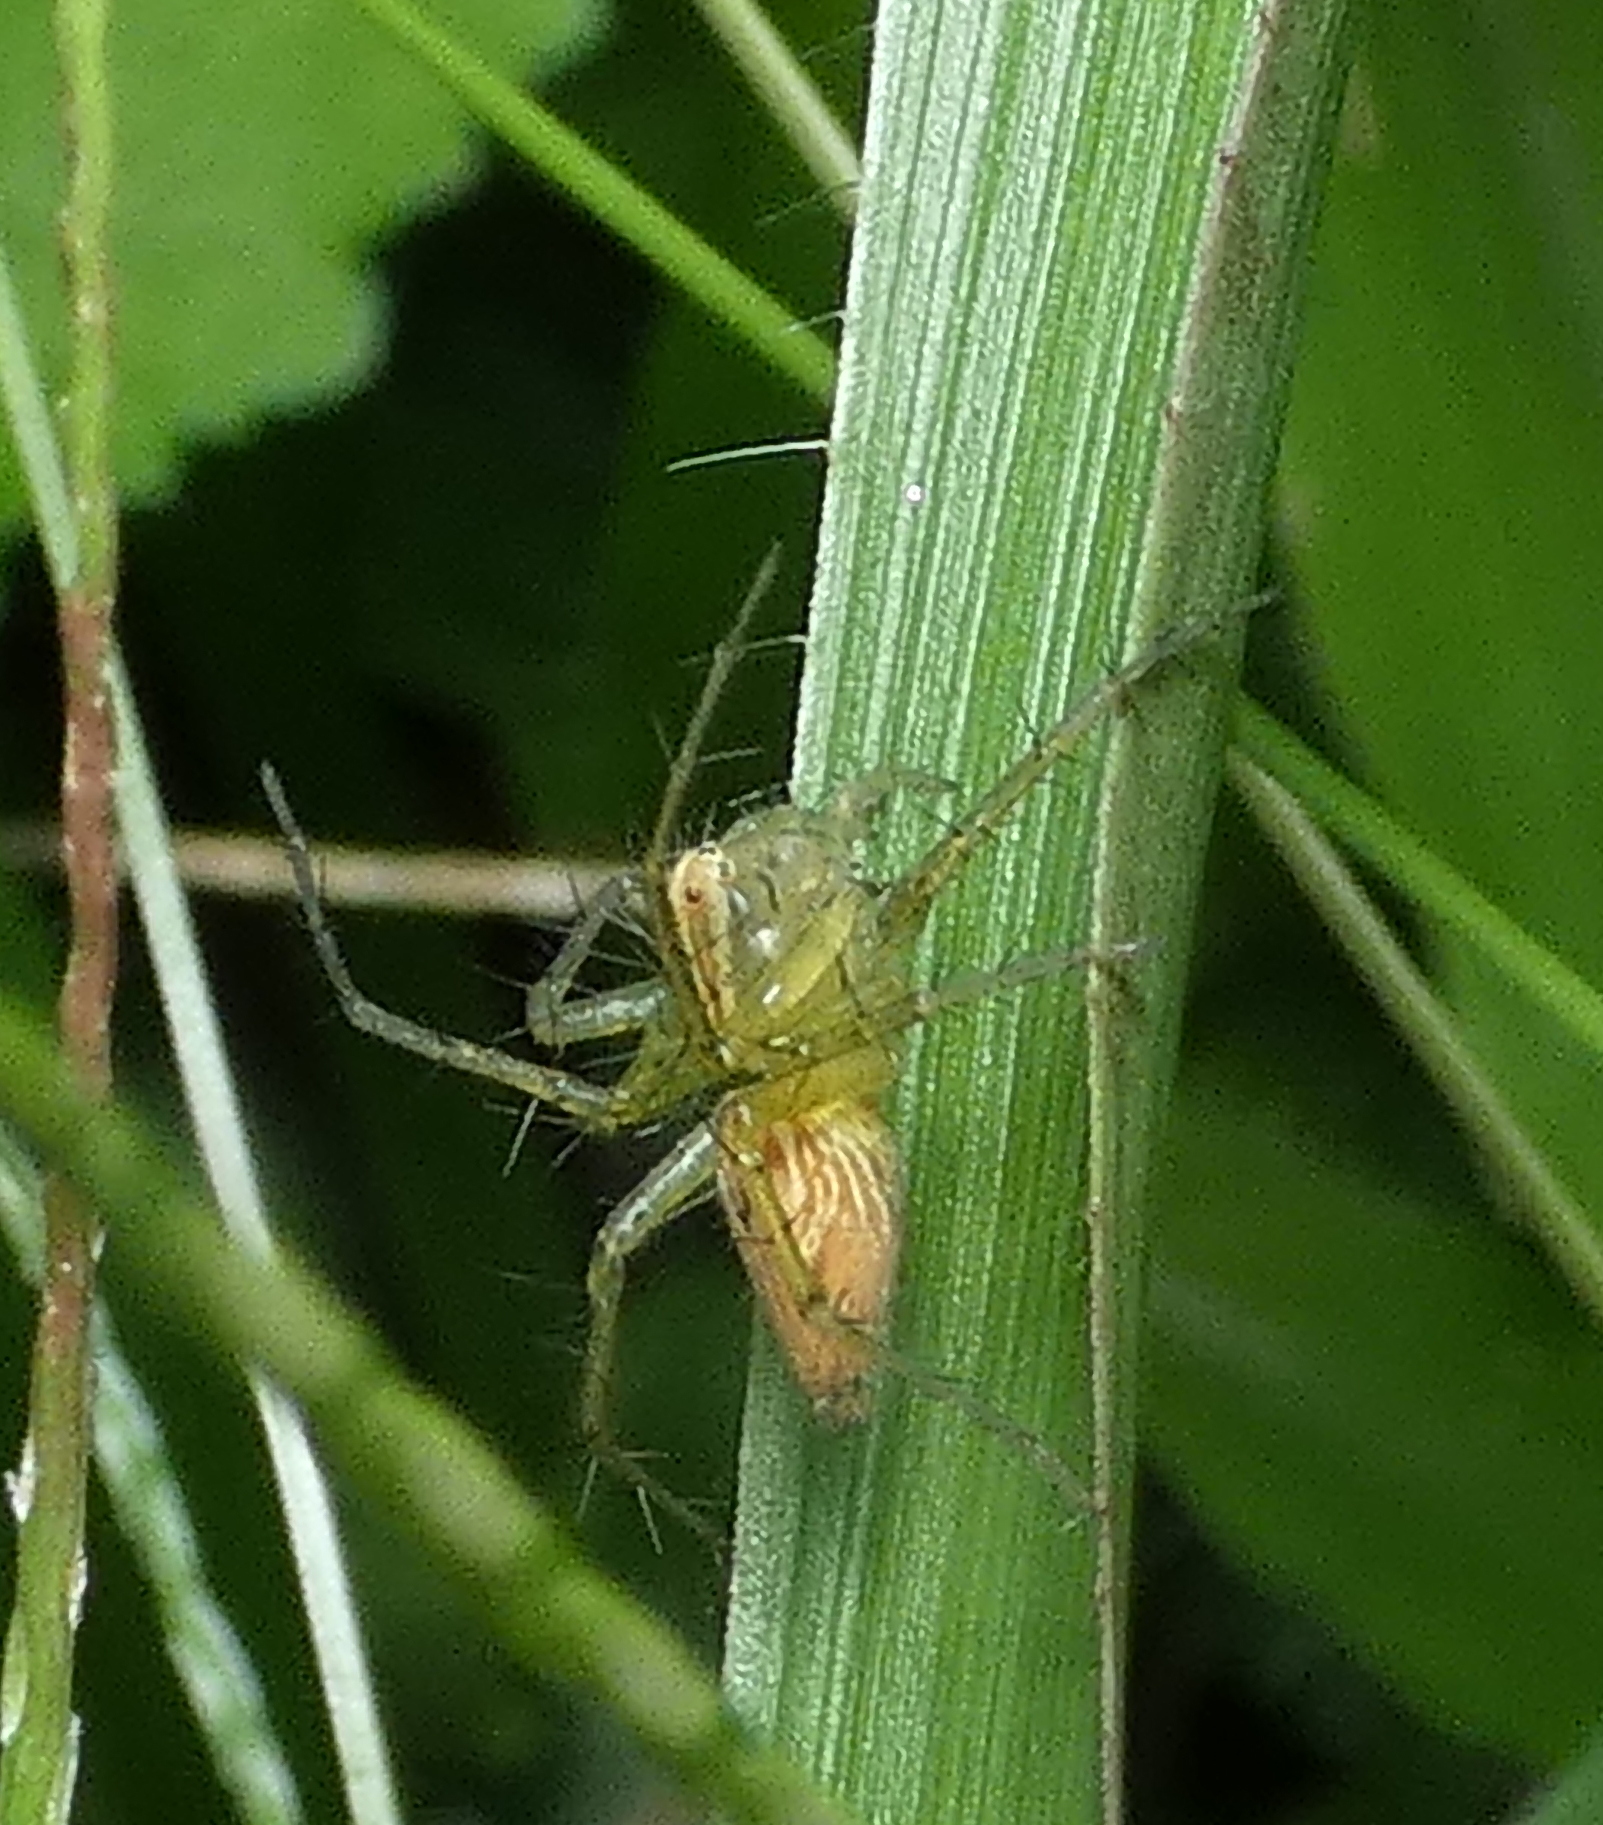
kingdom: Animalia
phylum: Arthropoda
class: Arachnida
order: Araneae
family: Oxyopidae
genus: Oxyopes
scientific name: Oxyopes salticus
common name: Lynx spiders
